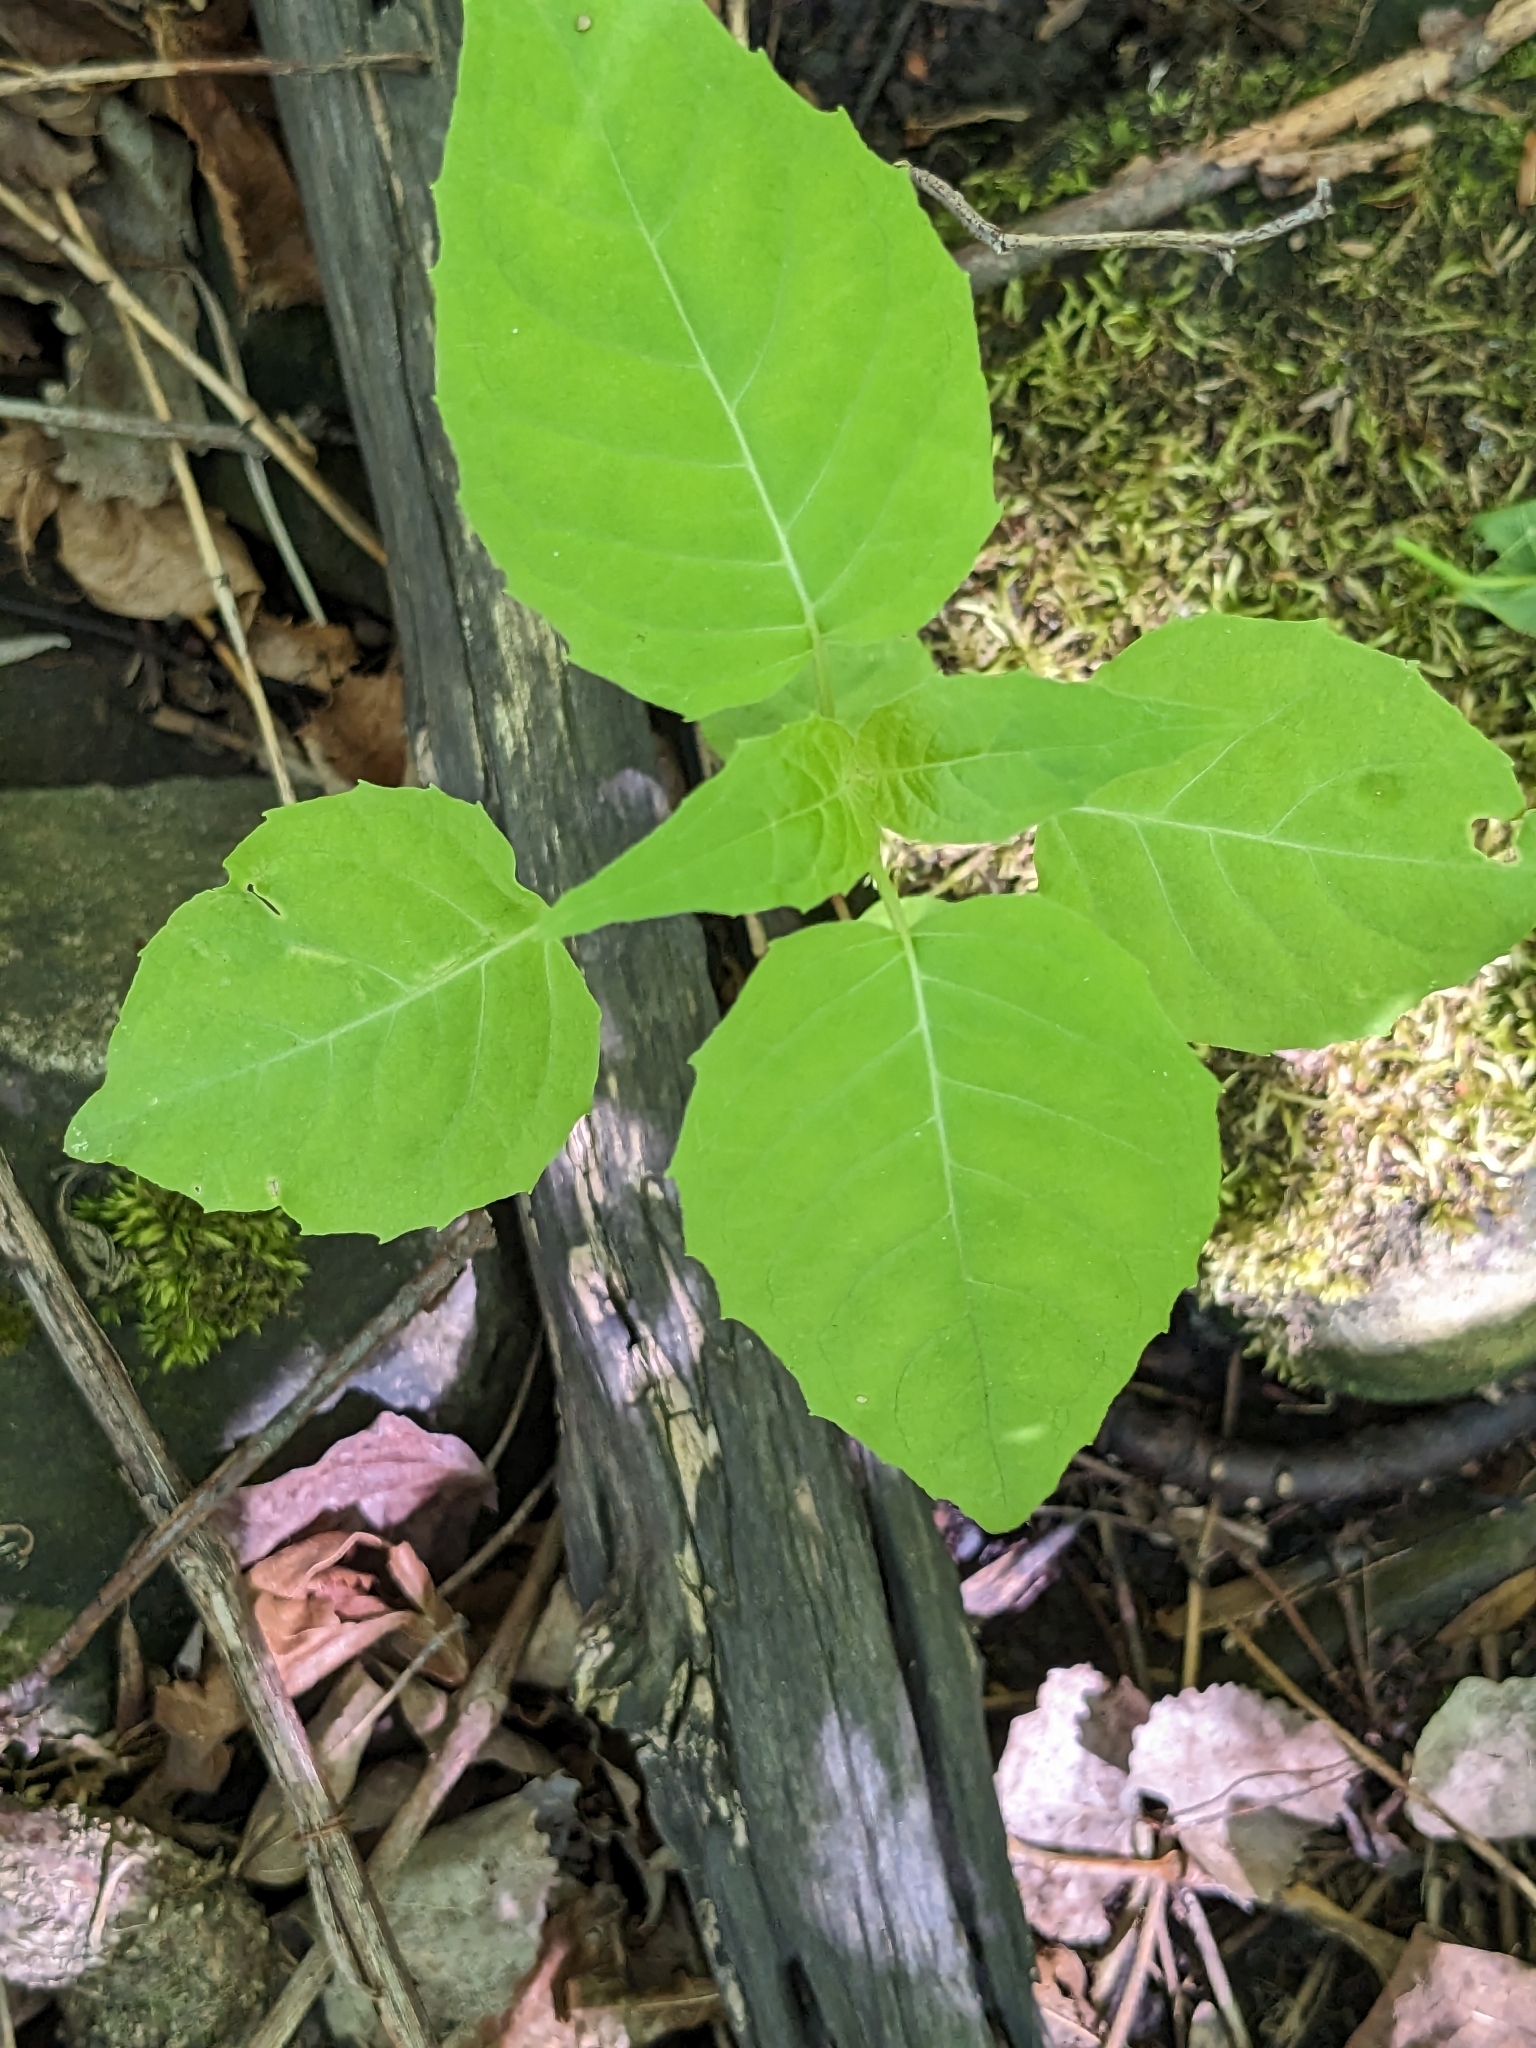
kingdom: Plantae
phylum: Tracheophyta
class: Magnoliopsida
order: Myrtales
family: Onagraceae
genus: Circaea
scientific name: Circaea canadensis
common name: Broad-leaved enchanter's nightshade
